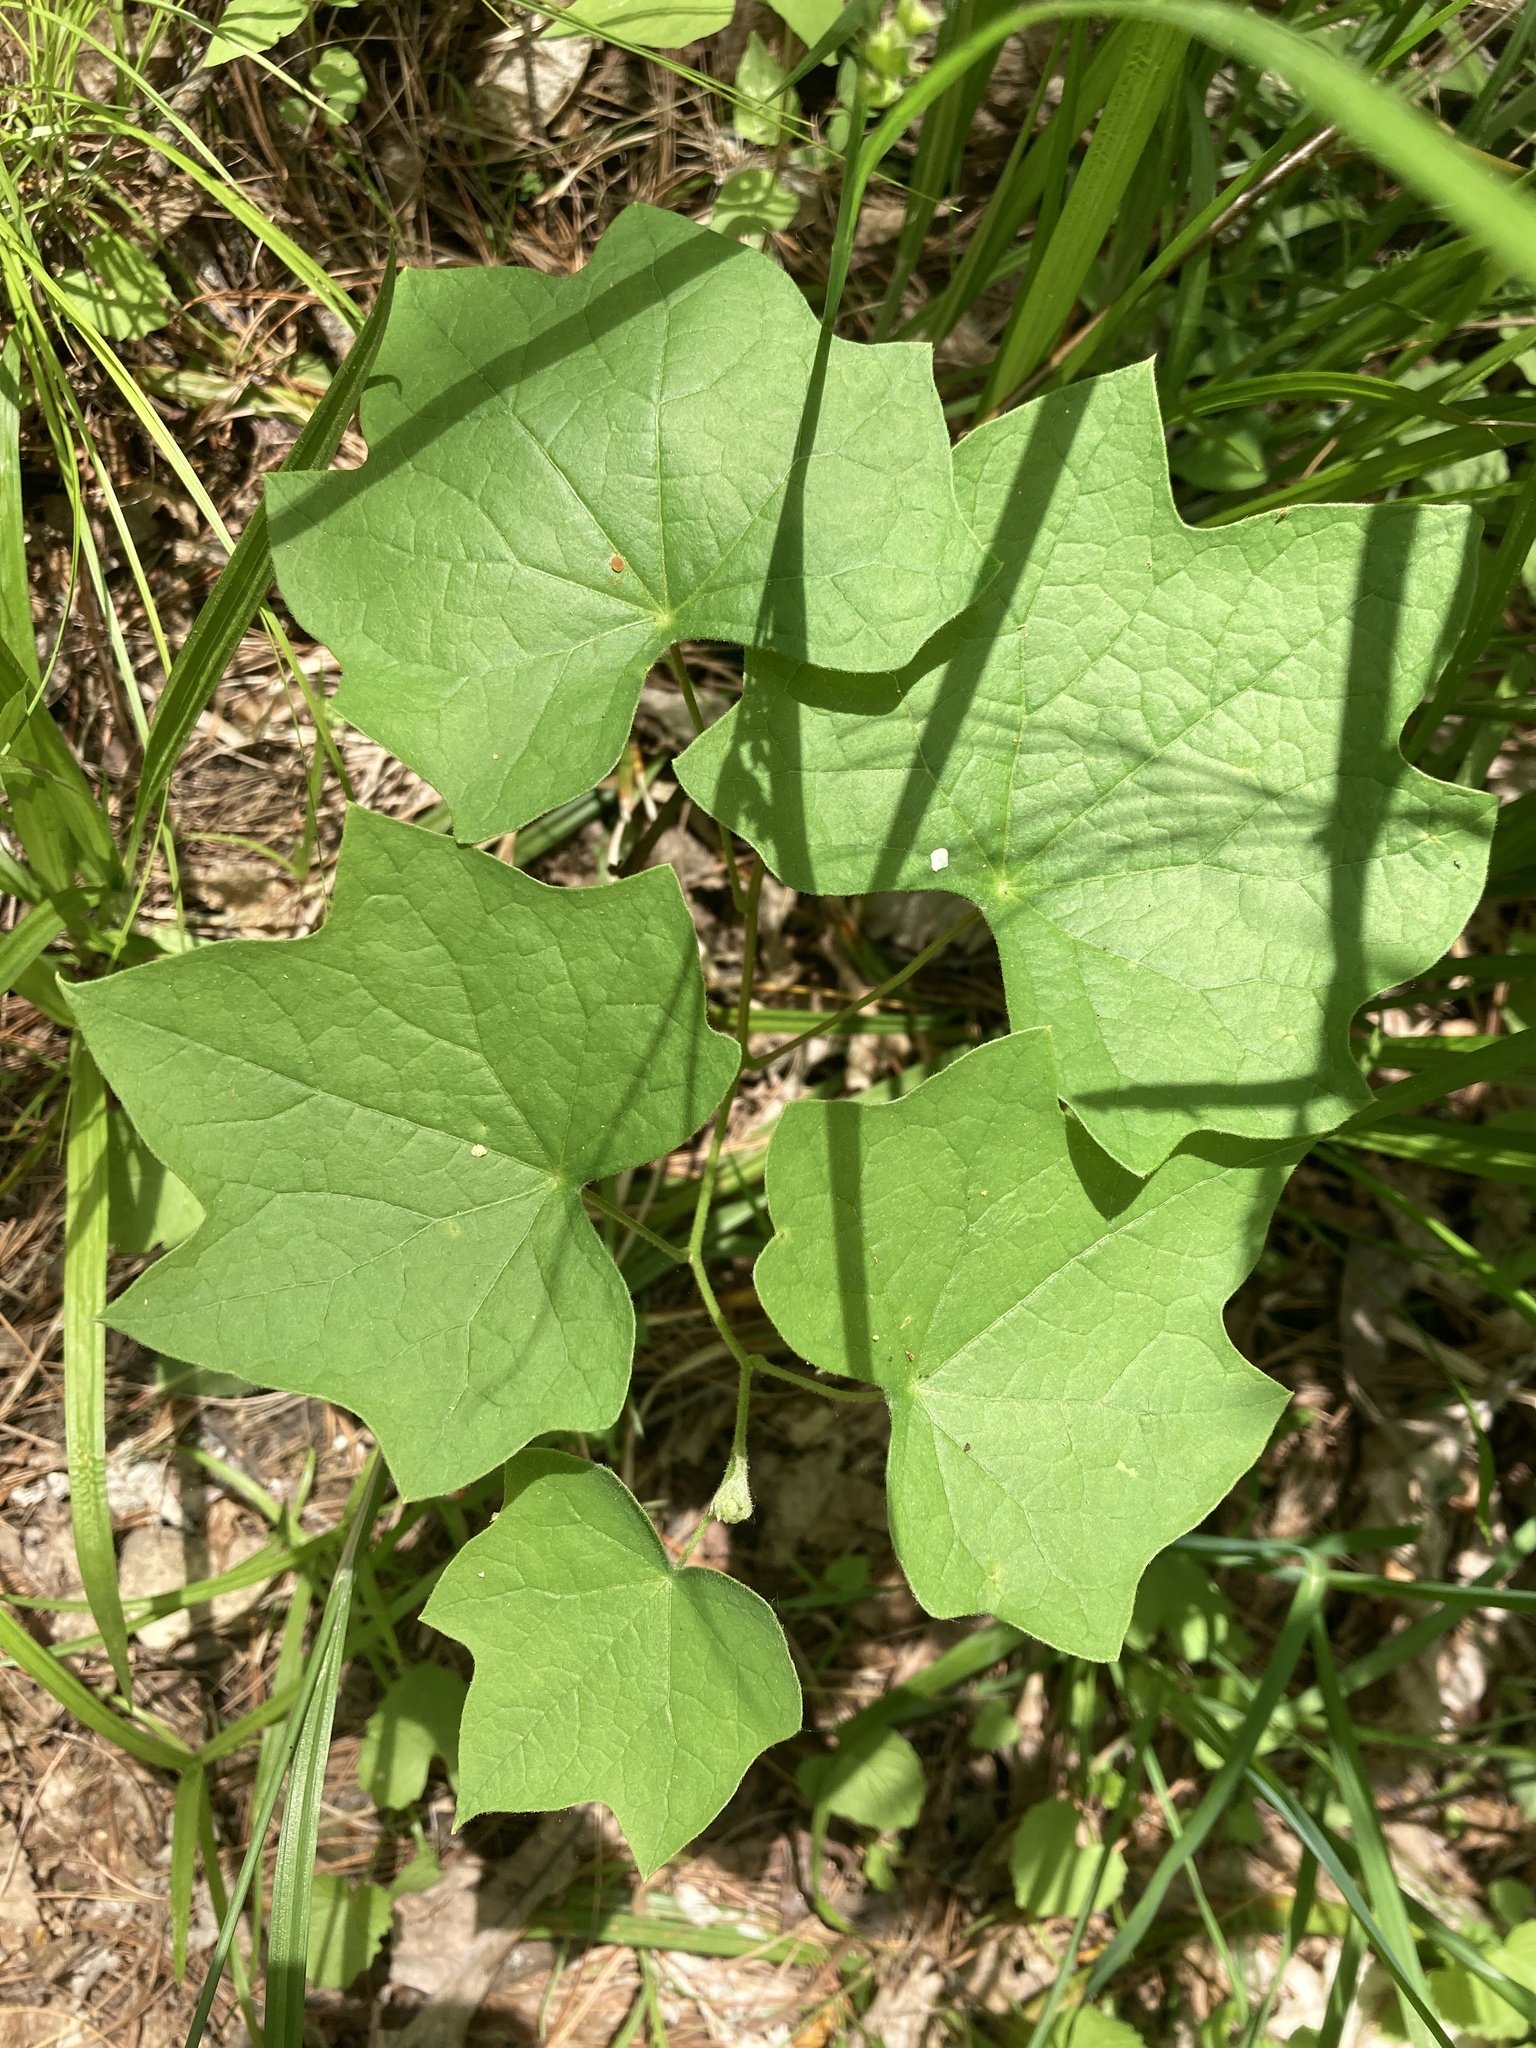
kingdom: Plantae
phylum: Tracheophyta
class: Magnoliopsida
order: Ranunculales
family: Menispermaceae
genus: Menispermum
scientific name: Menispermum canadense
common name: Moonseed
